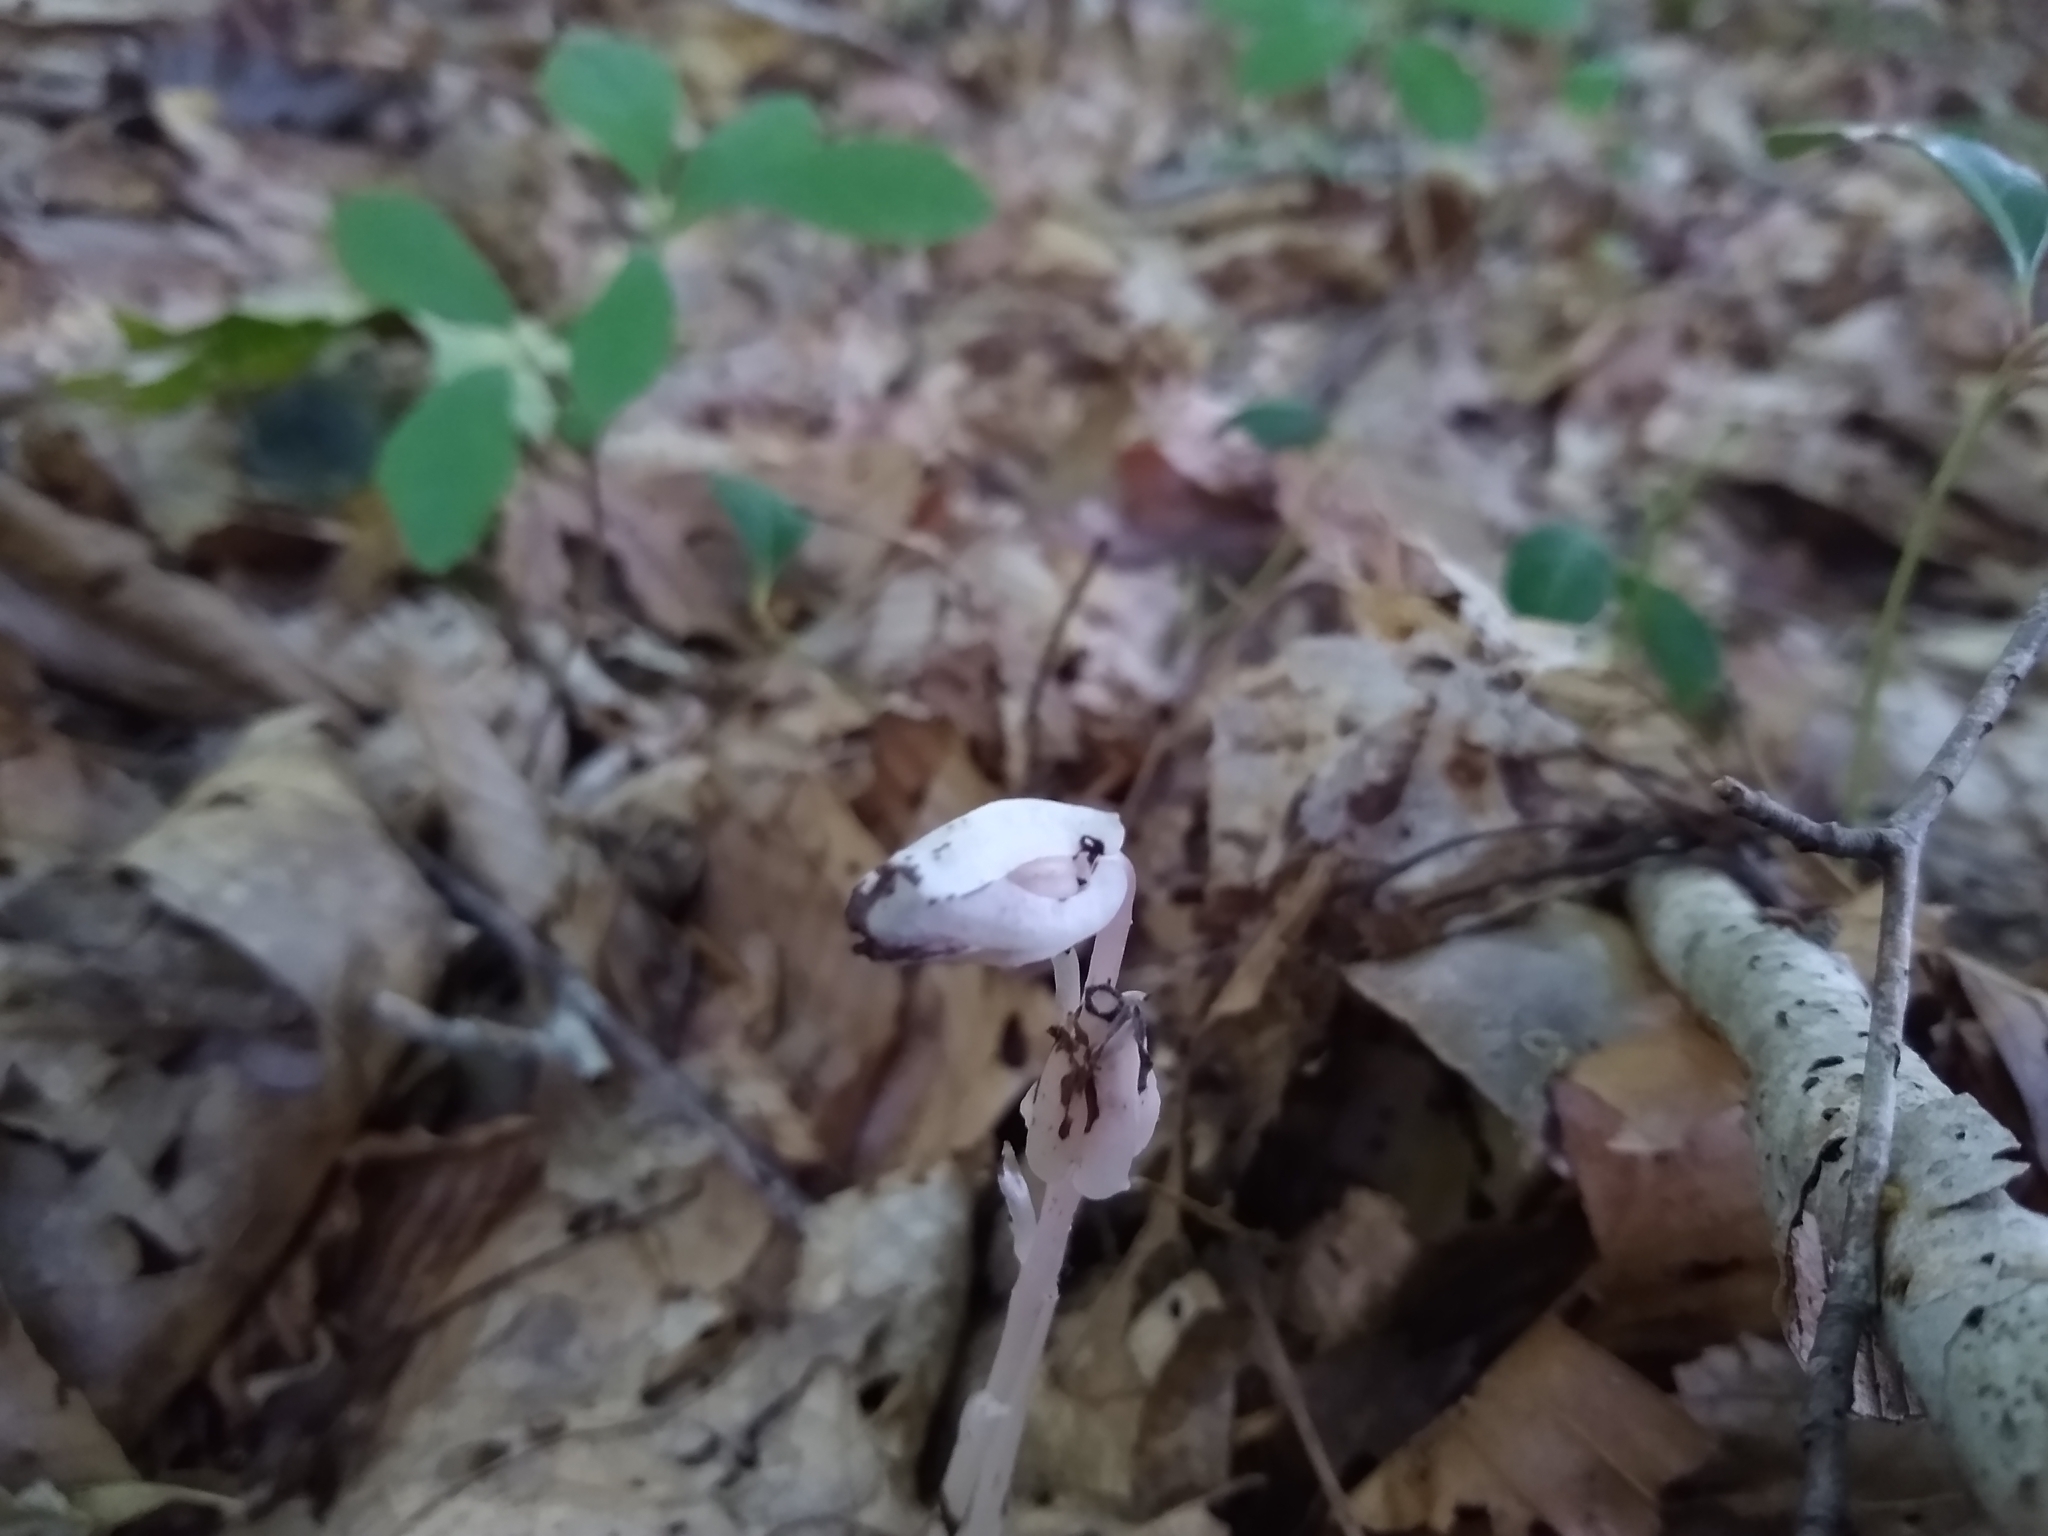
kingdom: Plantae
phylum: Tracheophyta
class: Magnoliopsida
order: Ericales
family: Ericaceae
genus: Monotropa
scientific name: Monotropa uniflora
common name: Convulsion root
